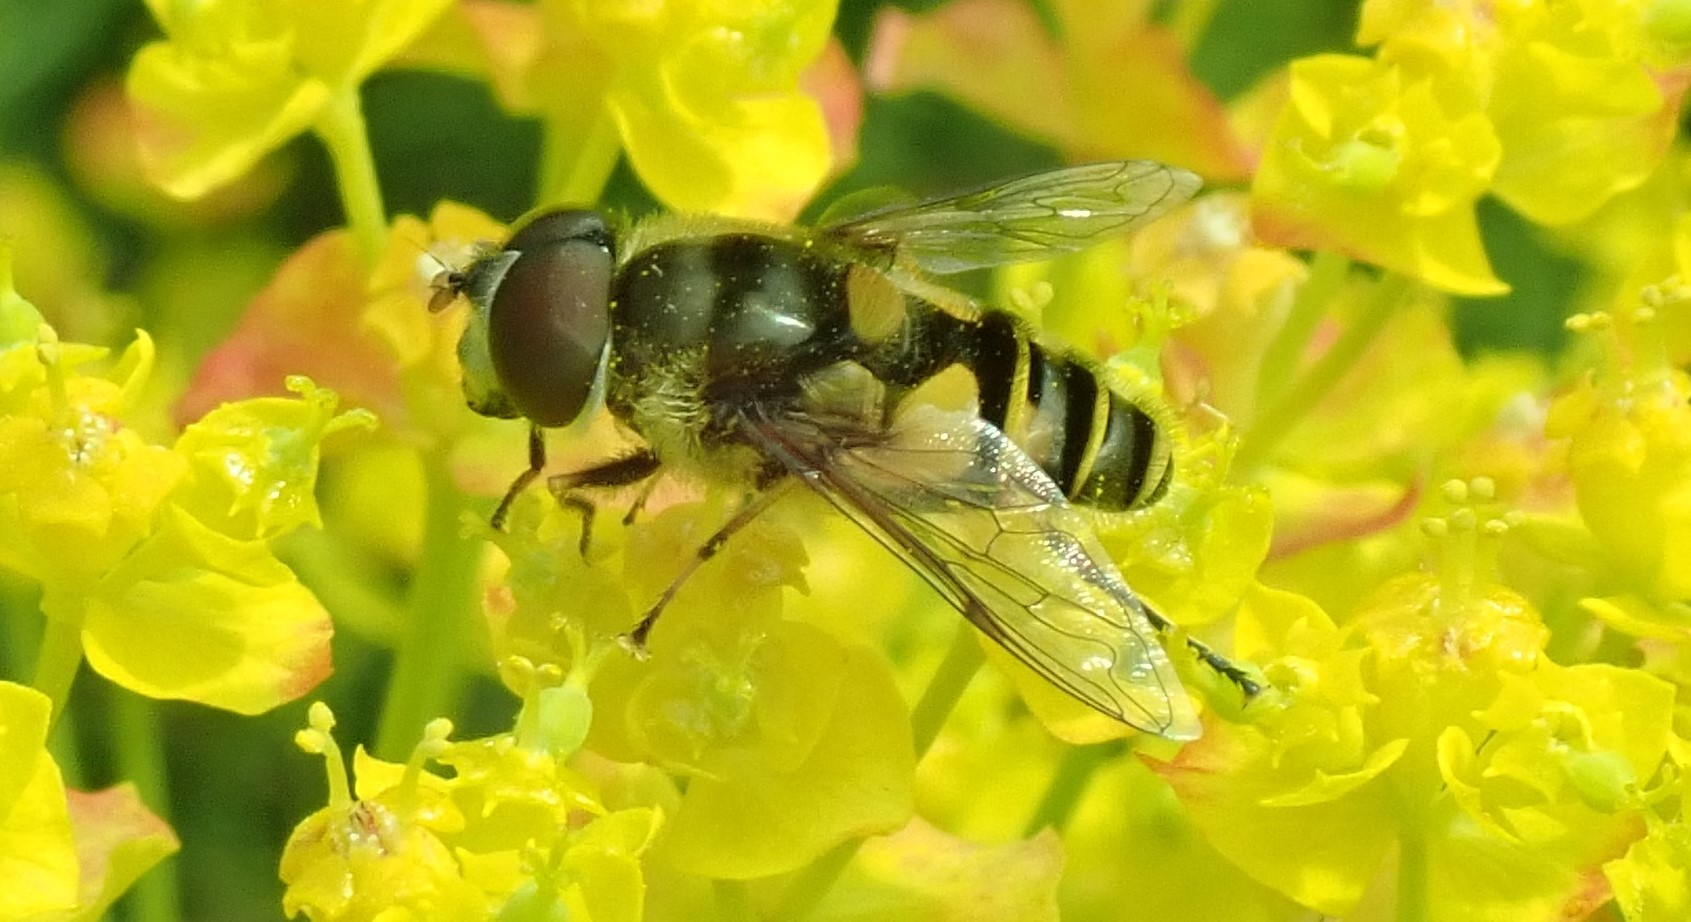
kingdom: Animalia
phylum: Arthropoda
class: Insecta
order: Diptera
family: Syrphidae
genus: Eristalis
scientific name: Eristalis transversa
